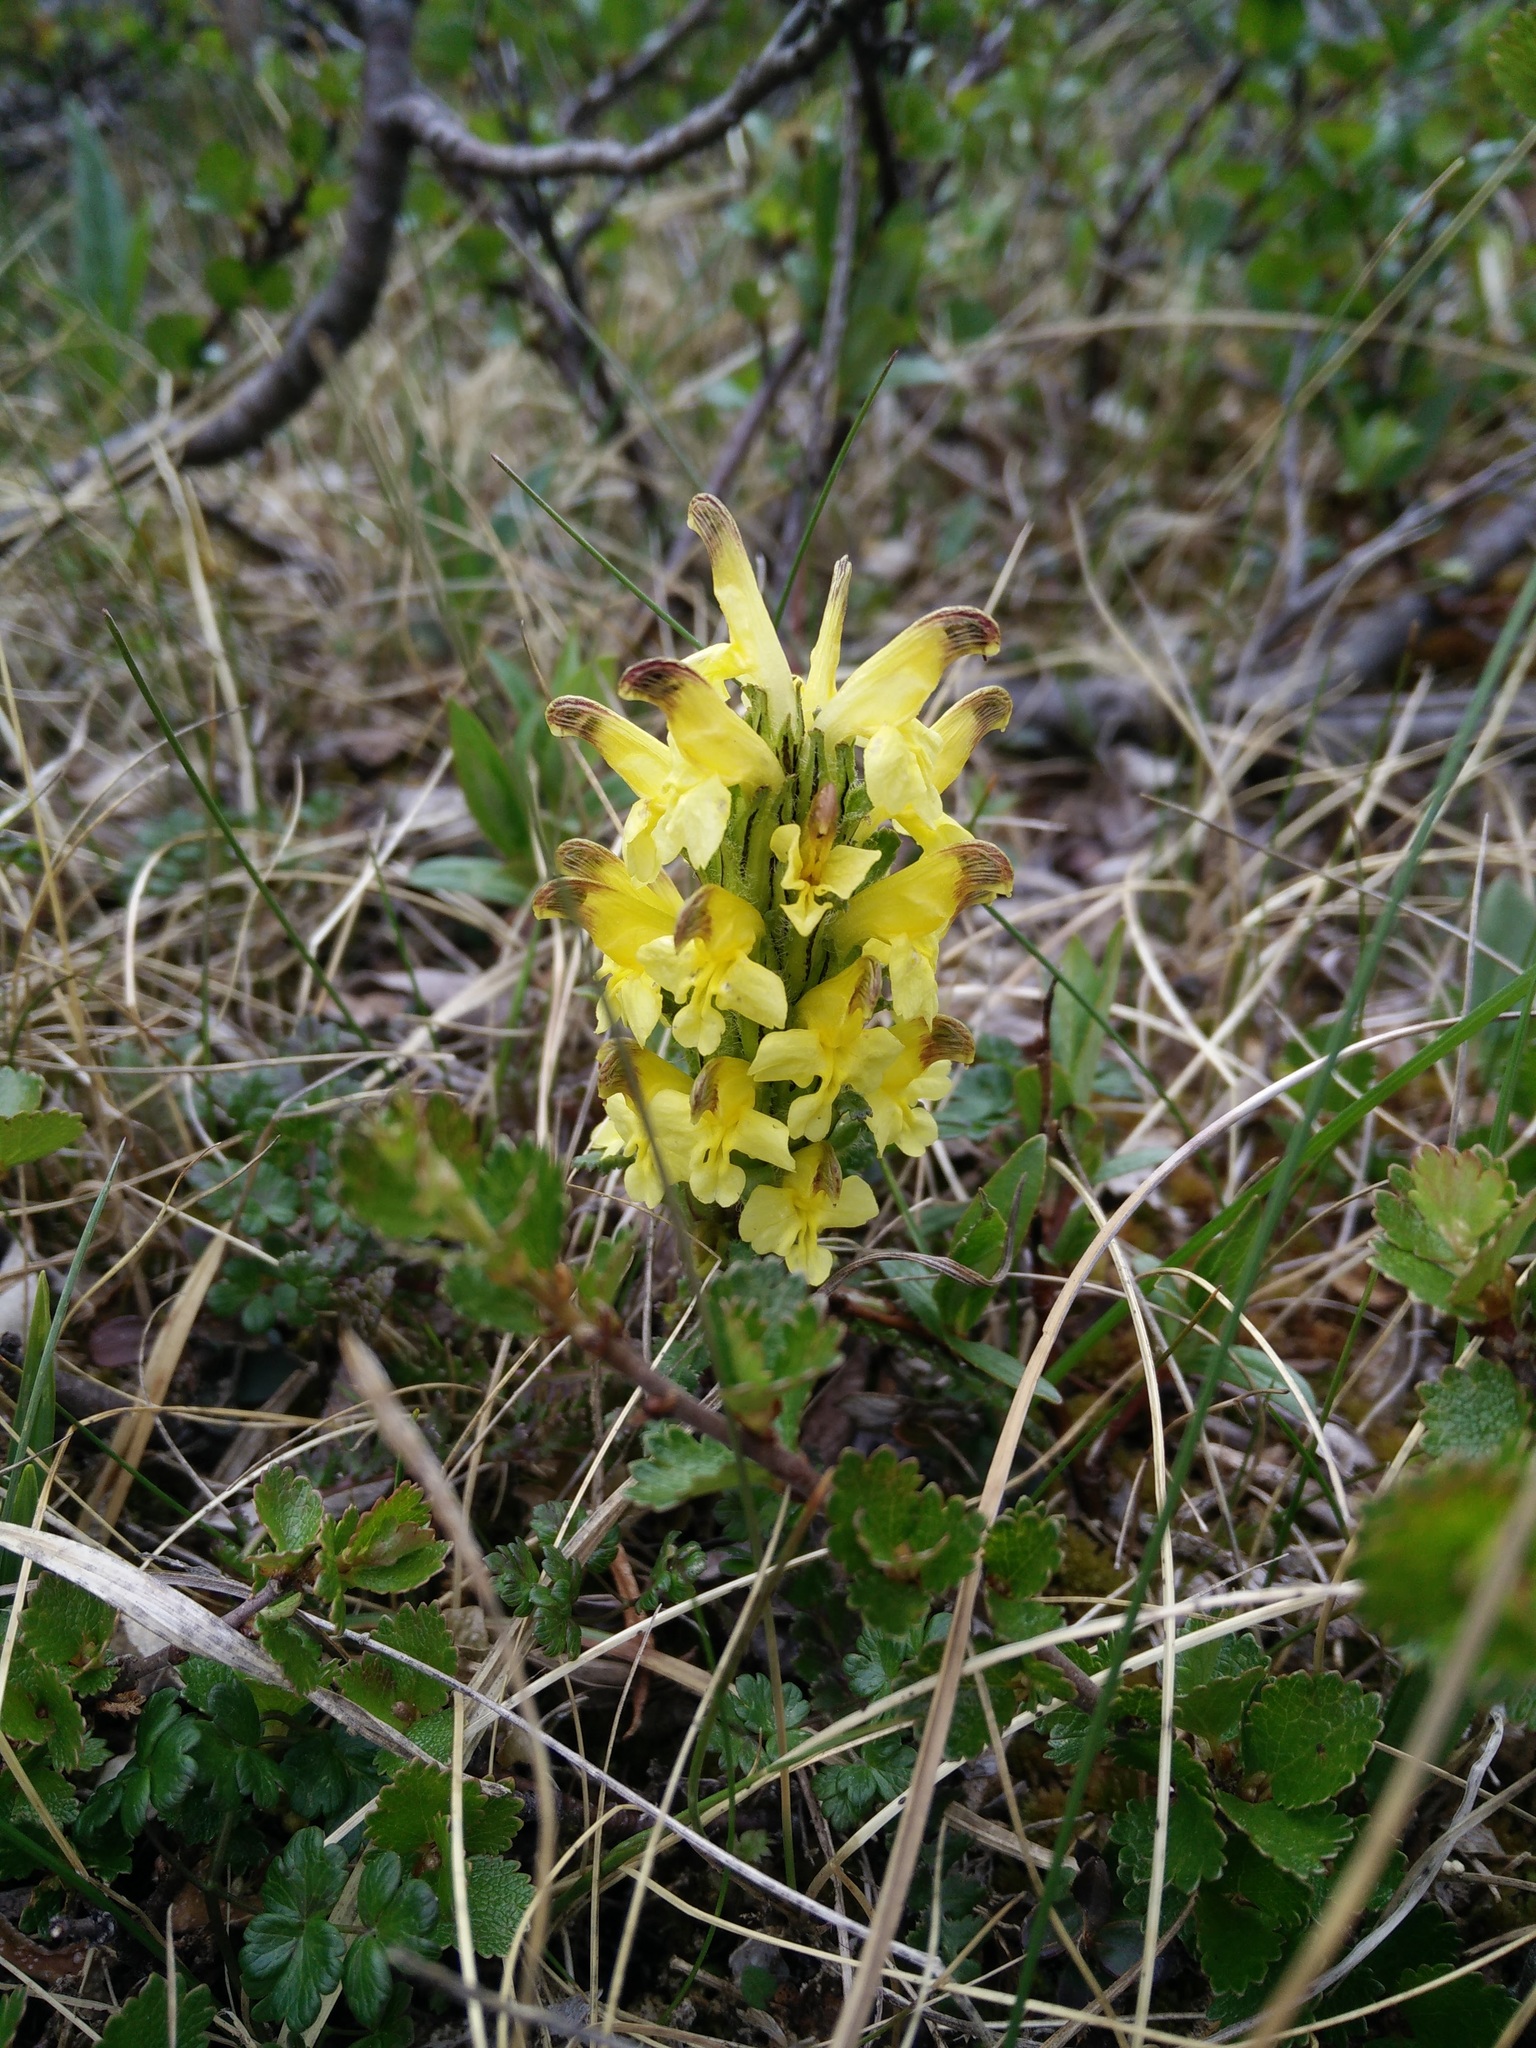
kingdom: Plantae
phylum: Tracheophyta
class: Magnoliopsida
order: Lamiales
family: Orobanchaceae
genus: Pedicularis
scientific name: Pedicularis oederi
